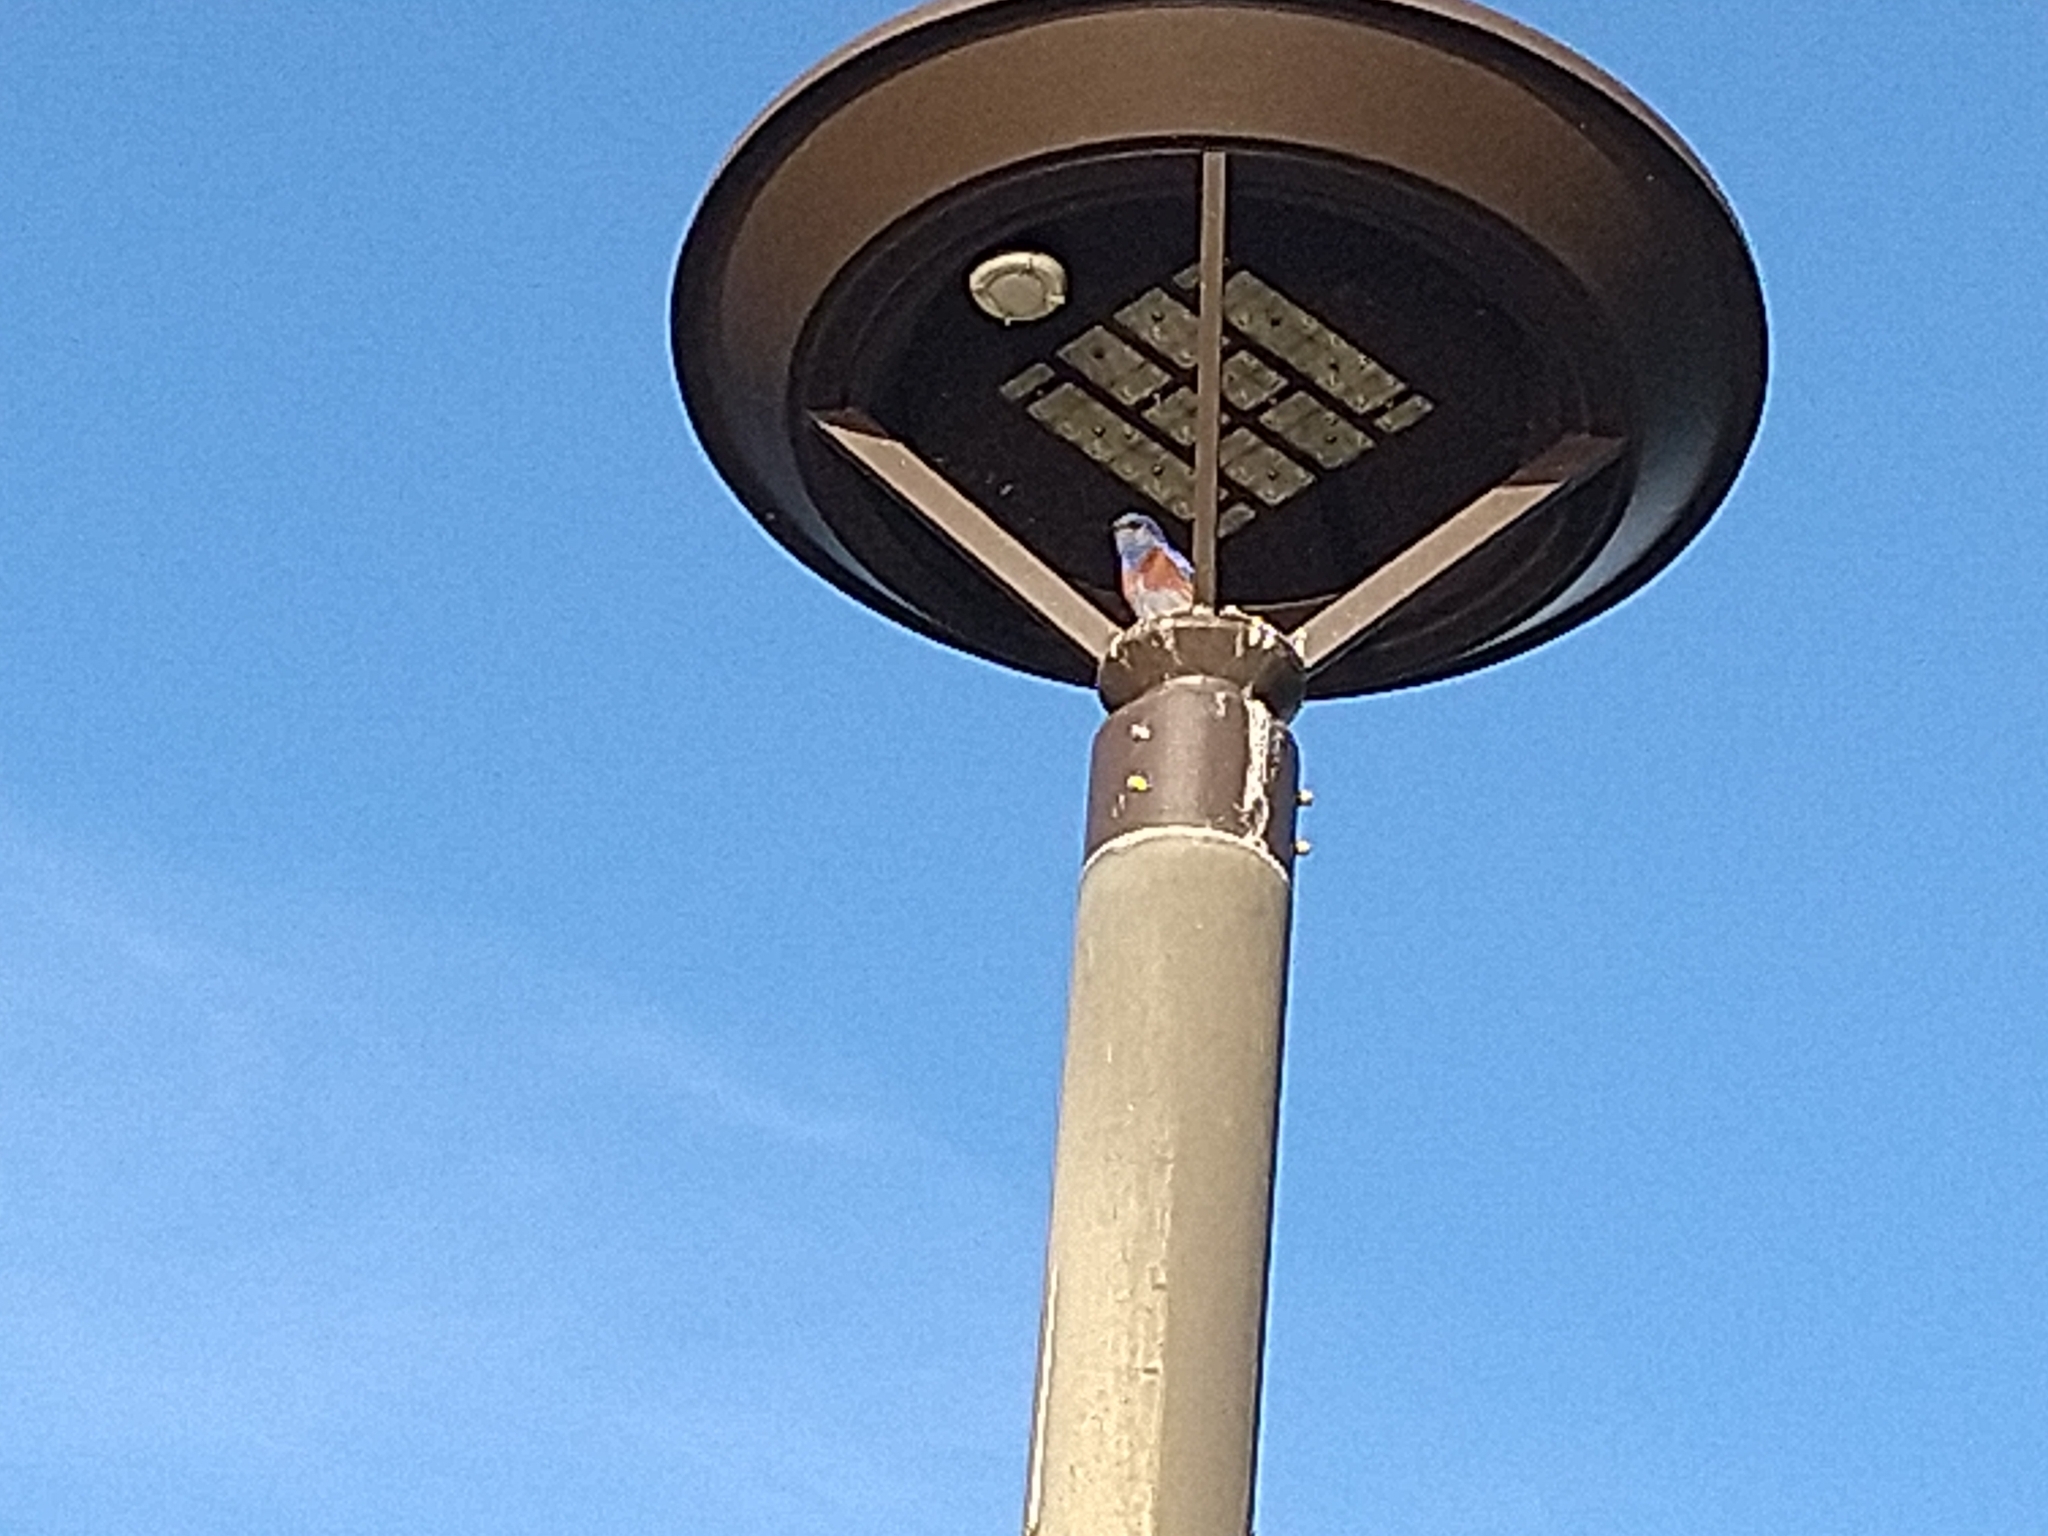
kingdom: Animalia
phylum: Chordata
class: Aves
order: Passeriformes
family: Turdidae
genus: Sialia
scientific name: Sialia mexicana
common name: Western bluebird
